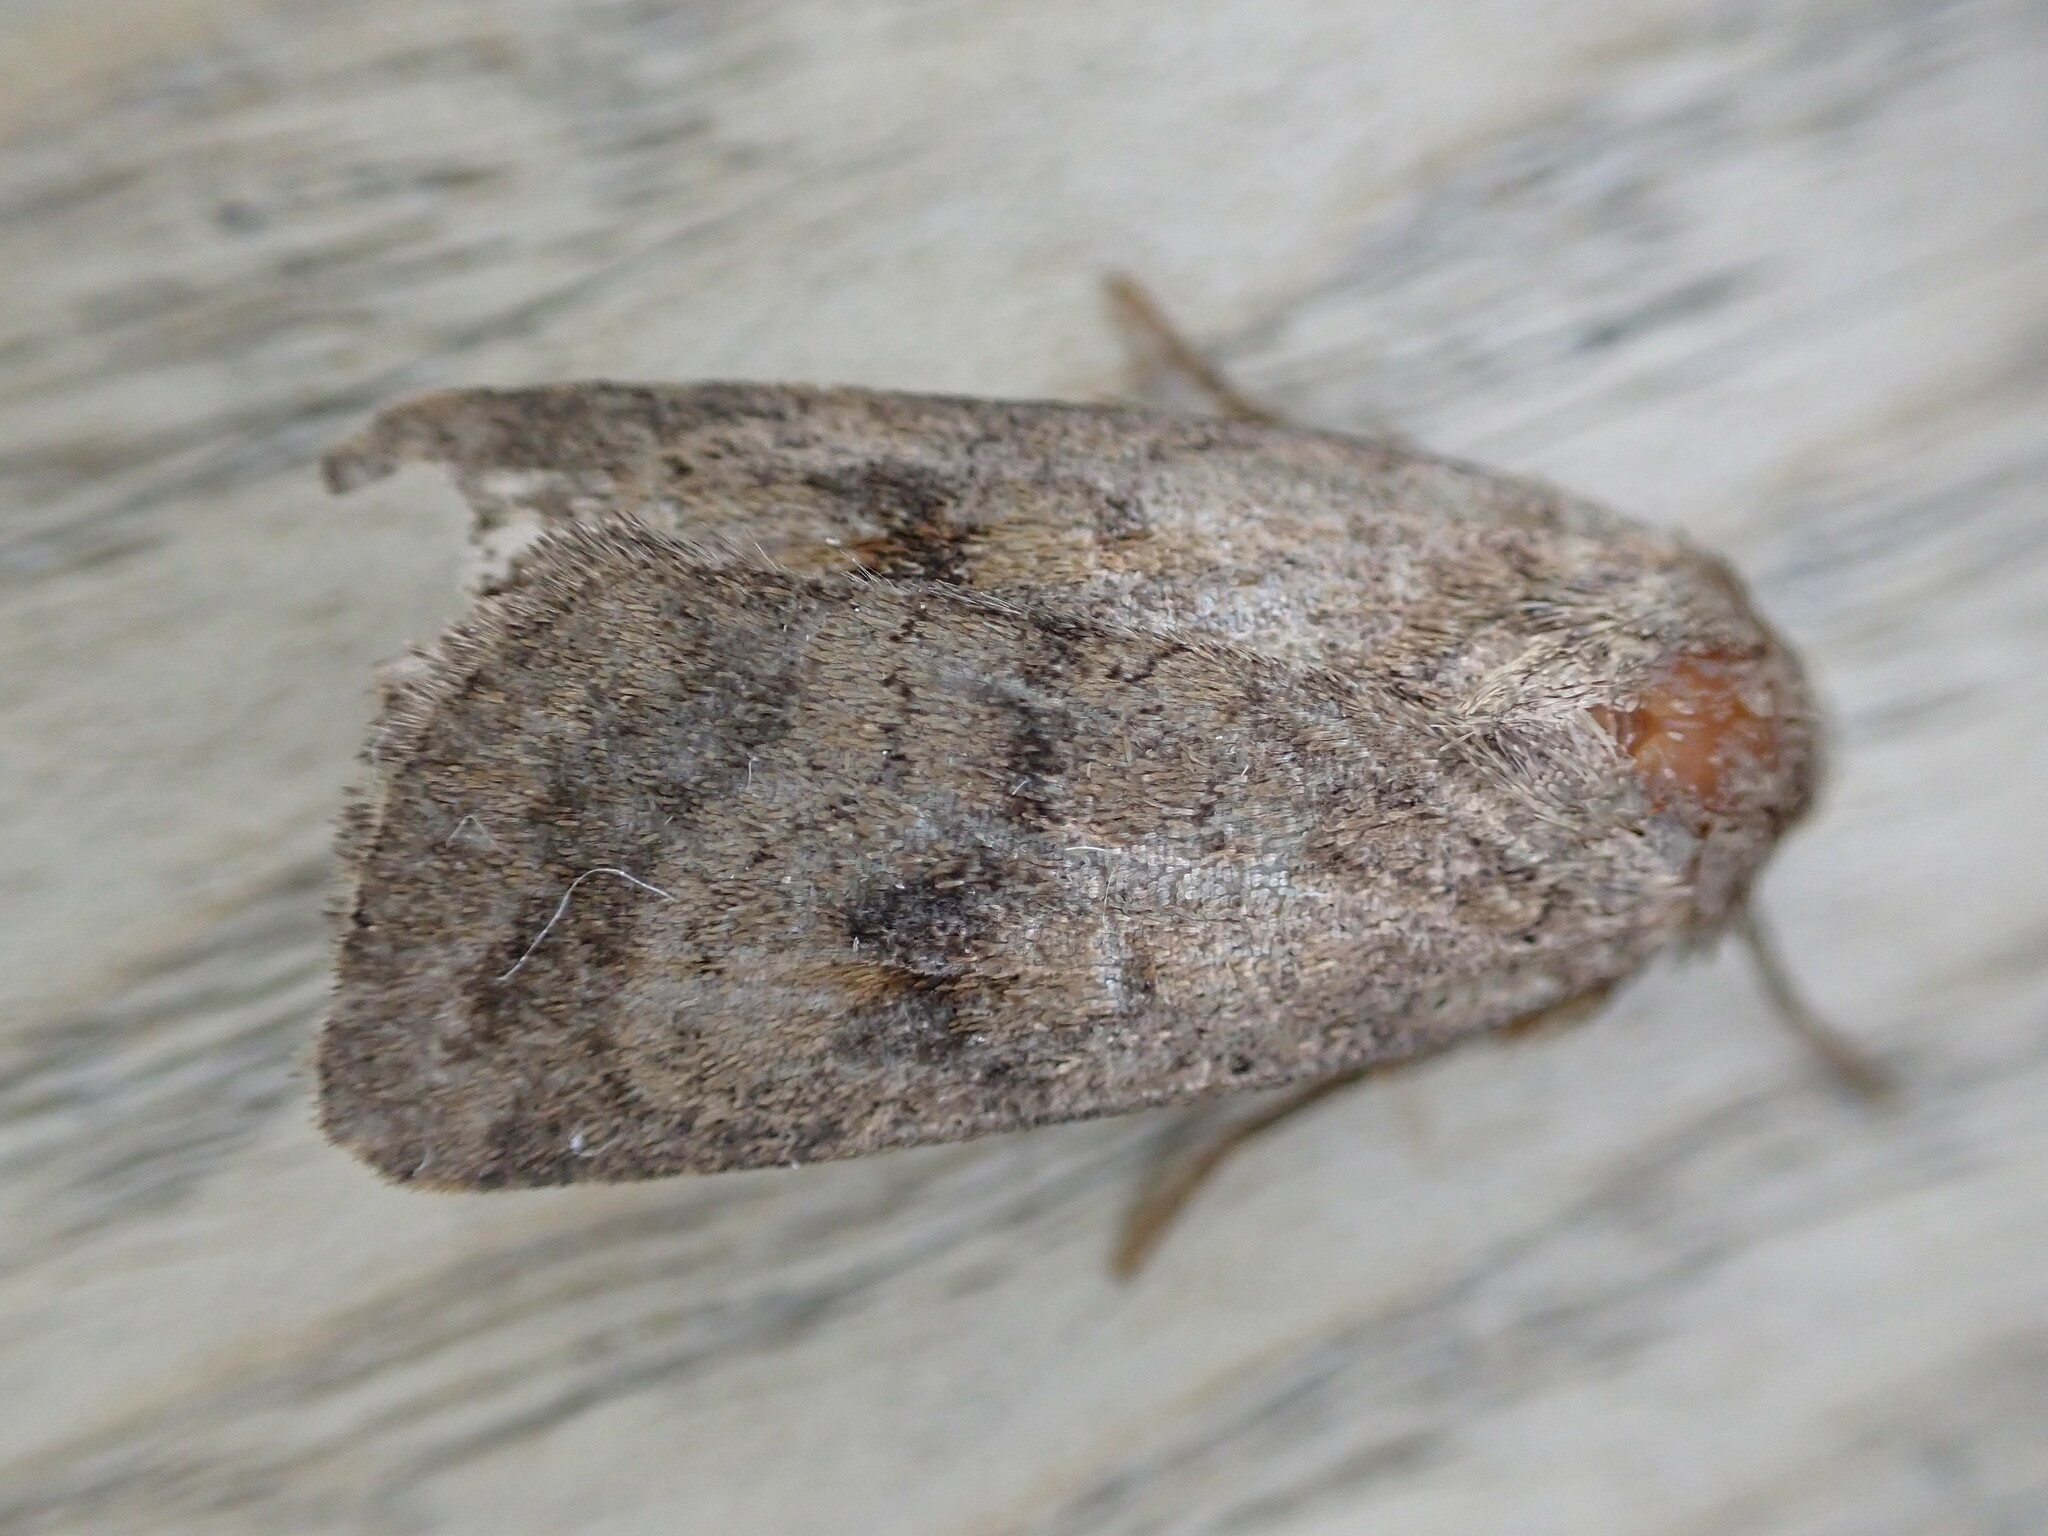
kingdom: Animalia
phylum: Arthropoda
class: Insecta
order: Lepidoptera
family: Noctuidae
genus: Caradrina
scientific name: Caradrina morpheus
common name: Mottled rustic
